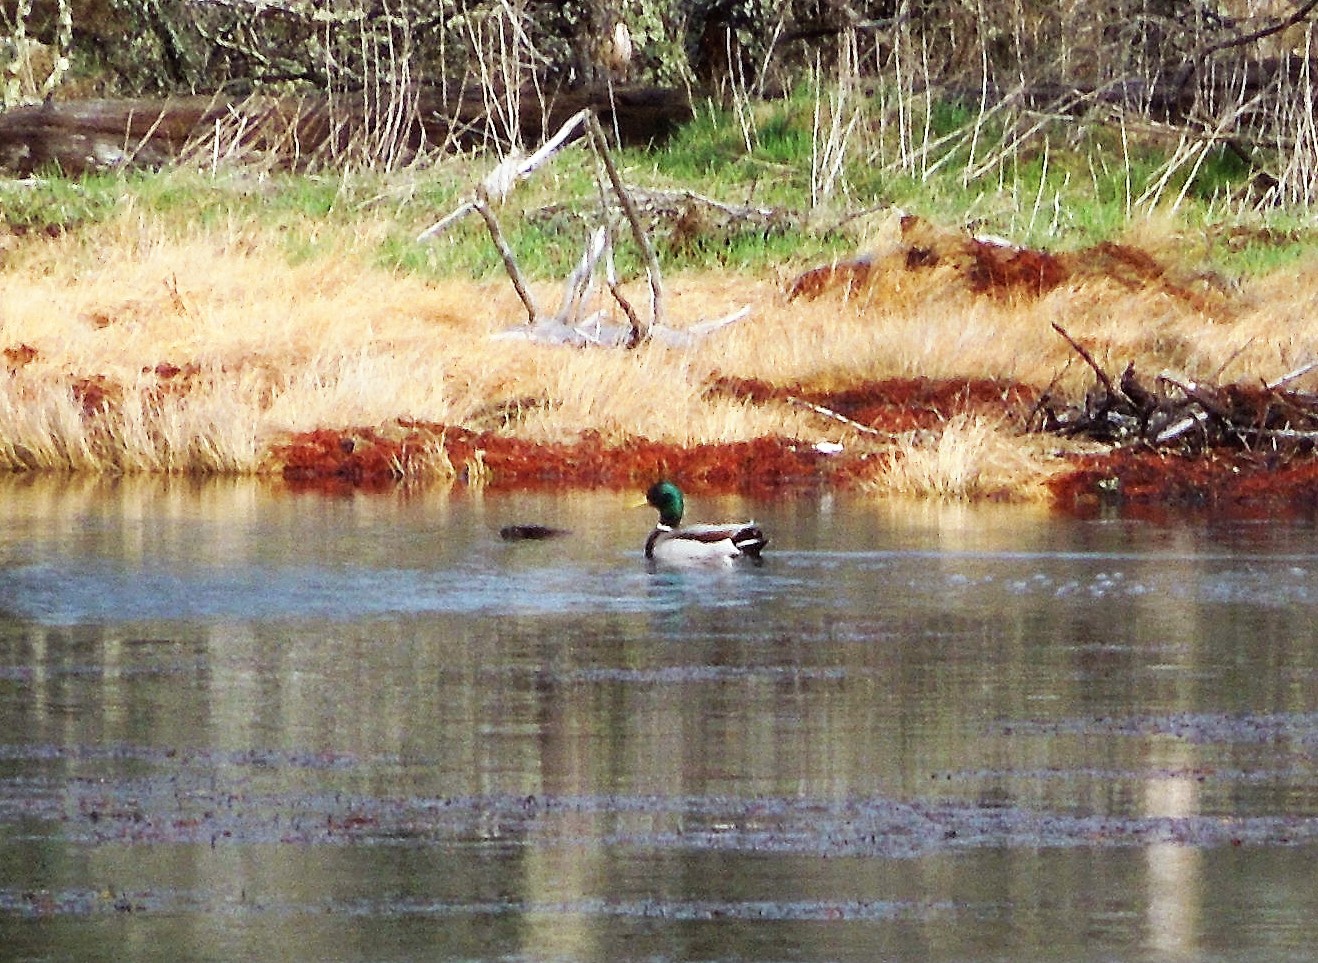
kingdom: Animalia
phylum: Chordata
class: Aves
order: Anseriformes
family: Anatidae
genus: Anas
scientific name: Anas platyrhynchos
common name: Mallard
